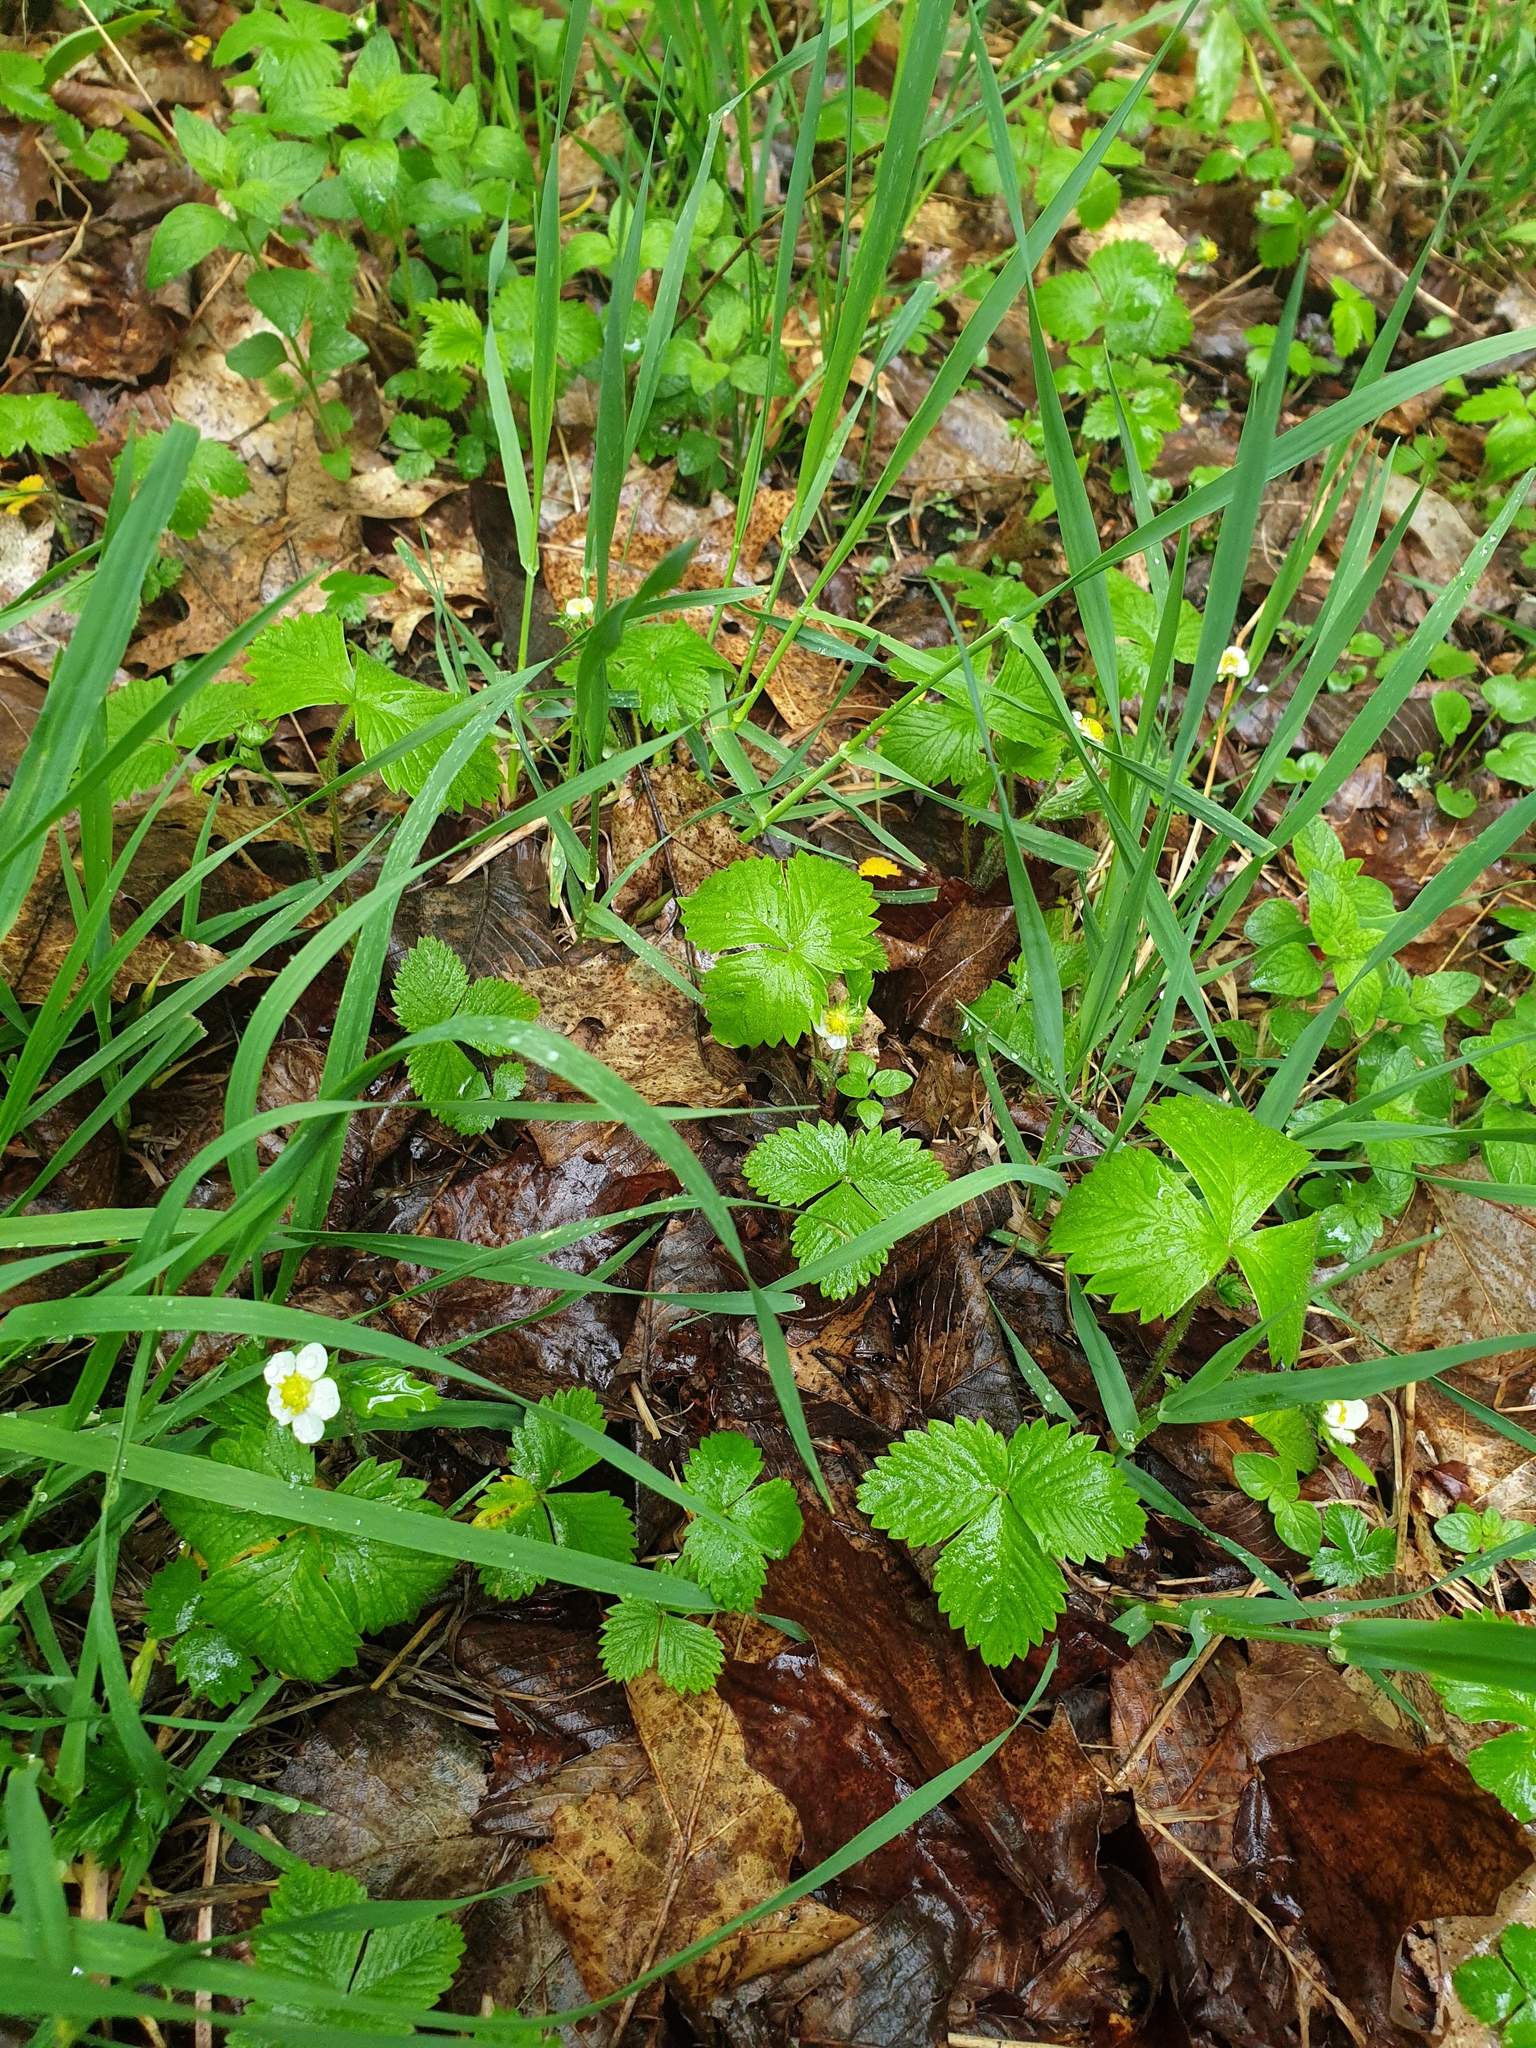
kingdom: Plantae
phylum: Tracheophyta
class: Magnoliopsida
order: Rosales
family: Rosaceae
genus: Fragaria
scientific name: Fragaria vesca
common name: Wild strawberry
